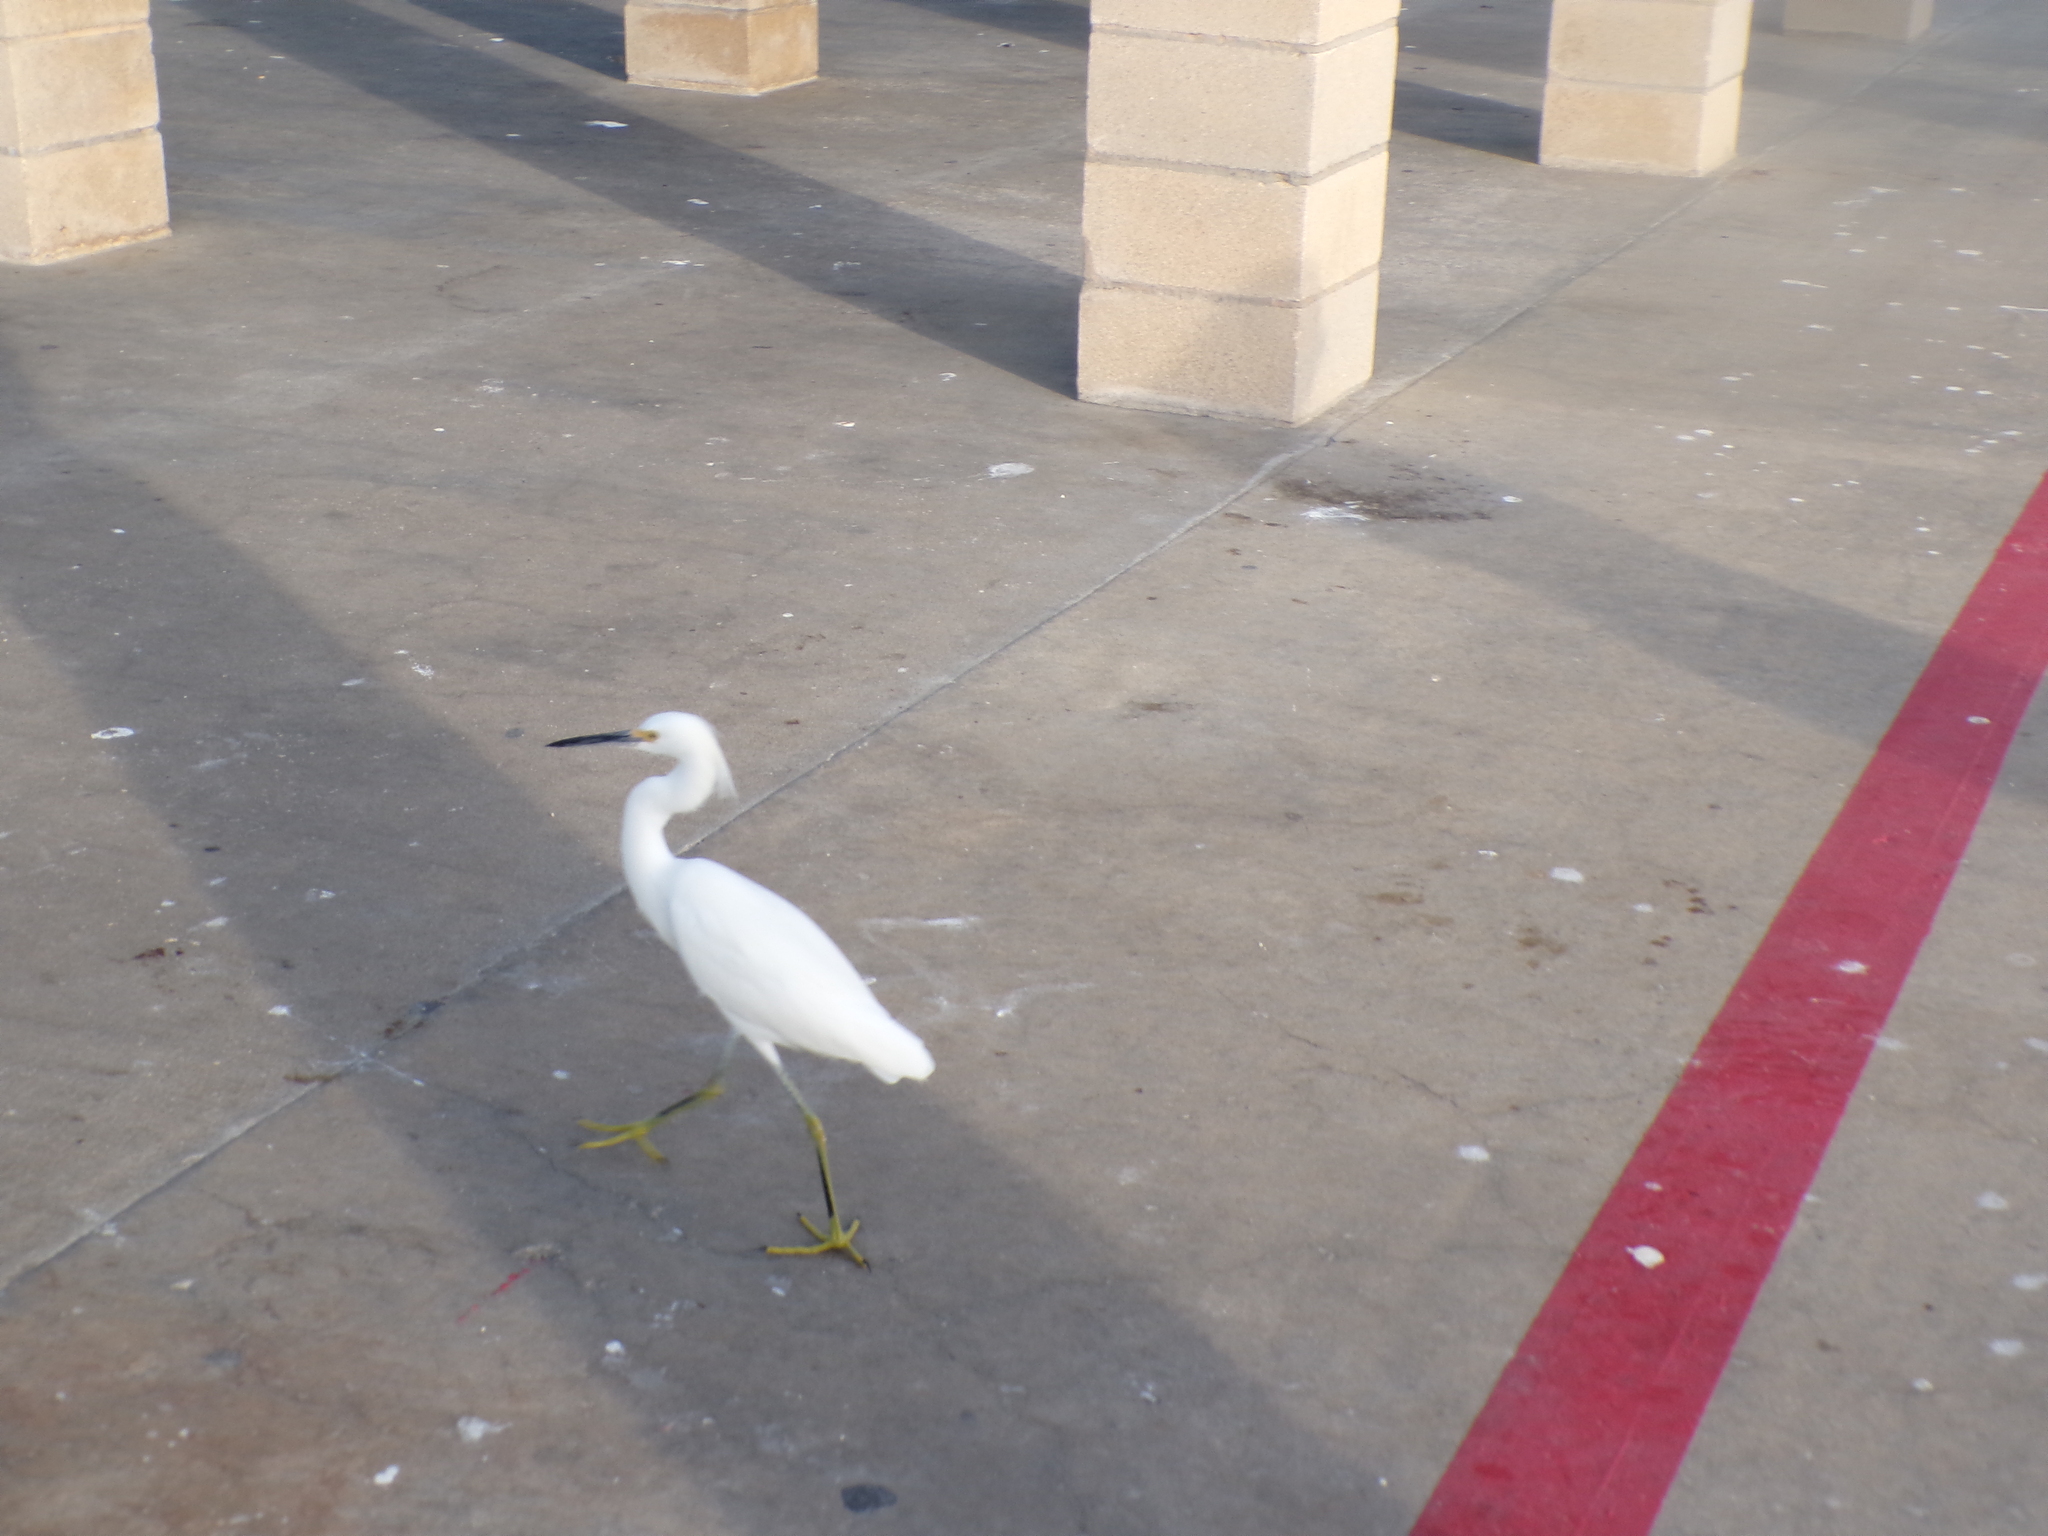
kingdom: Animalia
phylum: Chordata
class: Aves
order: Pelecaniformes
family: Ardeidae
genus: Egretta
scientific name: Egretta thula
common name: Snowy egret
